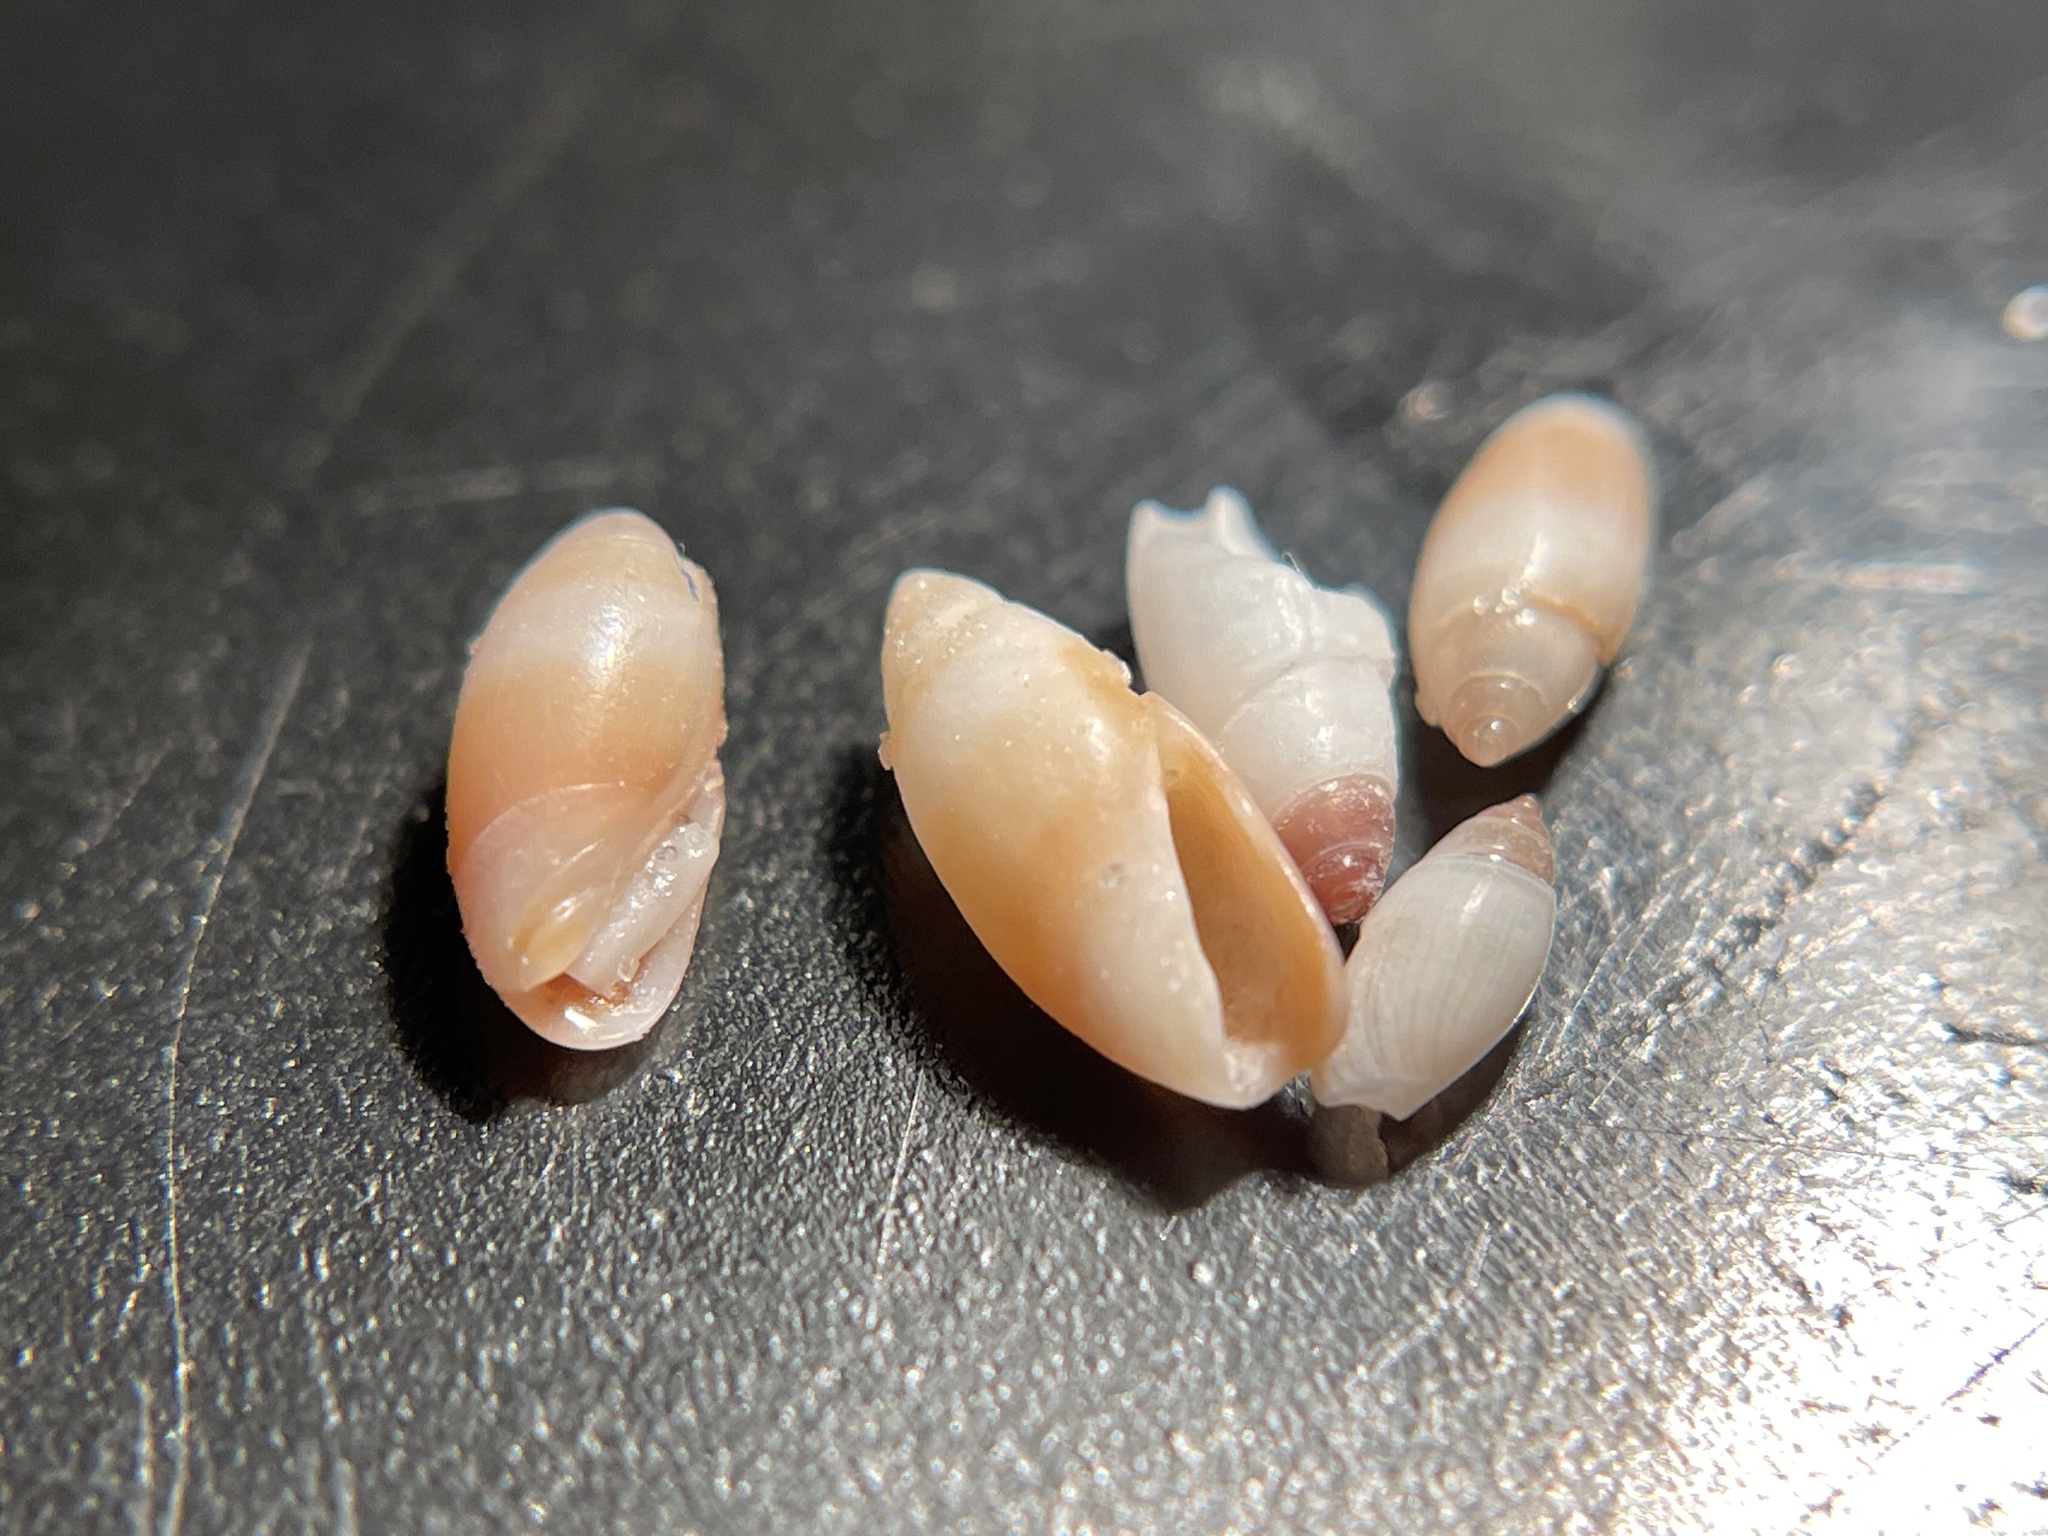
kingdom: Animalia
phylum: Mollusca
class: Gastropoda
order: Neogastropoda
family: Olividae
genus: Olivella
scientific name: Olivella pusilla
